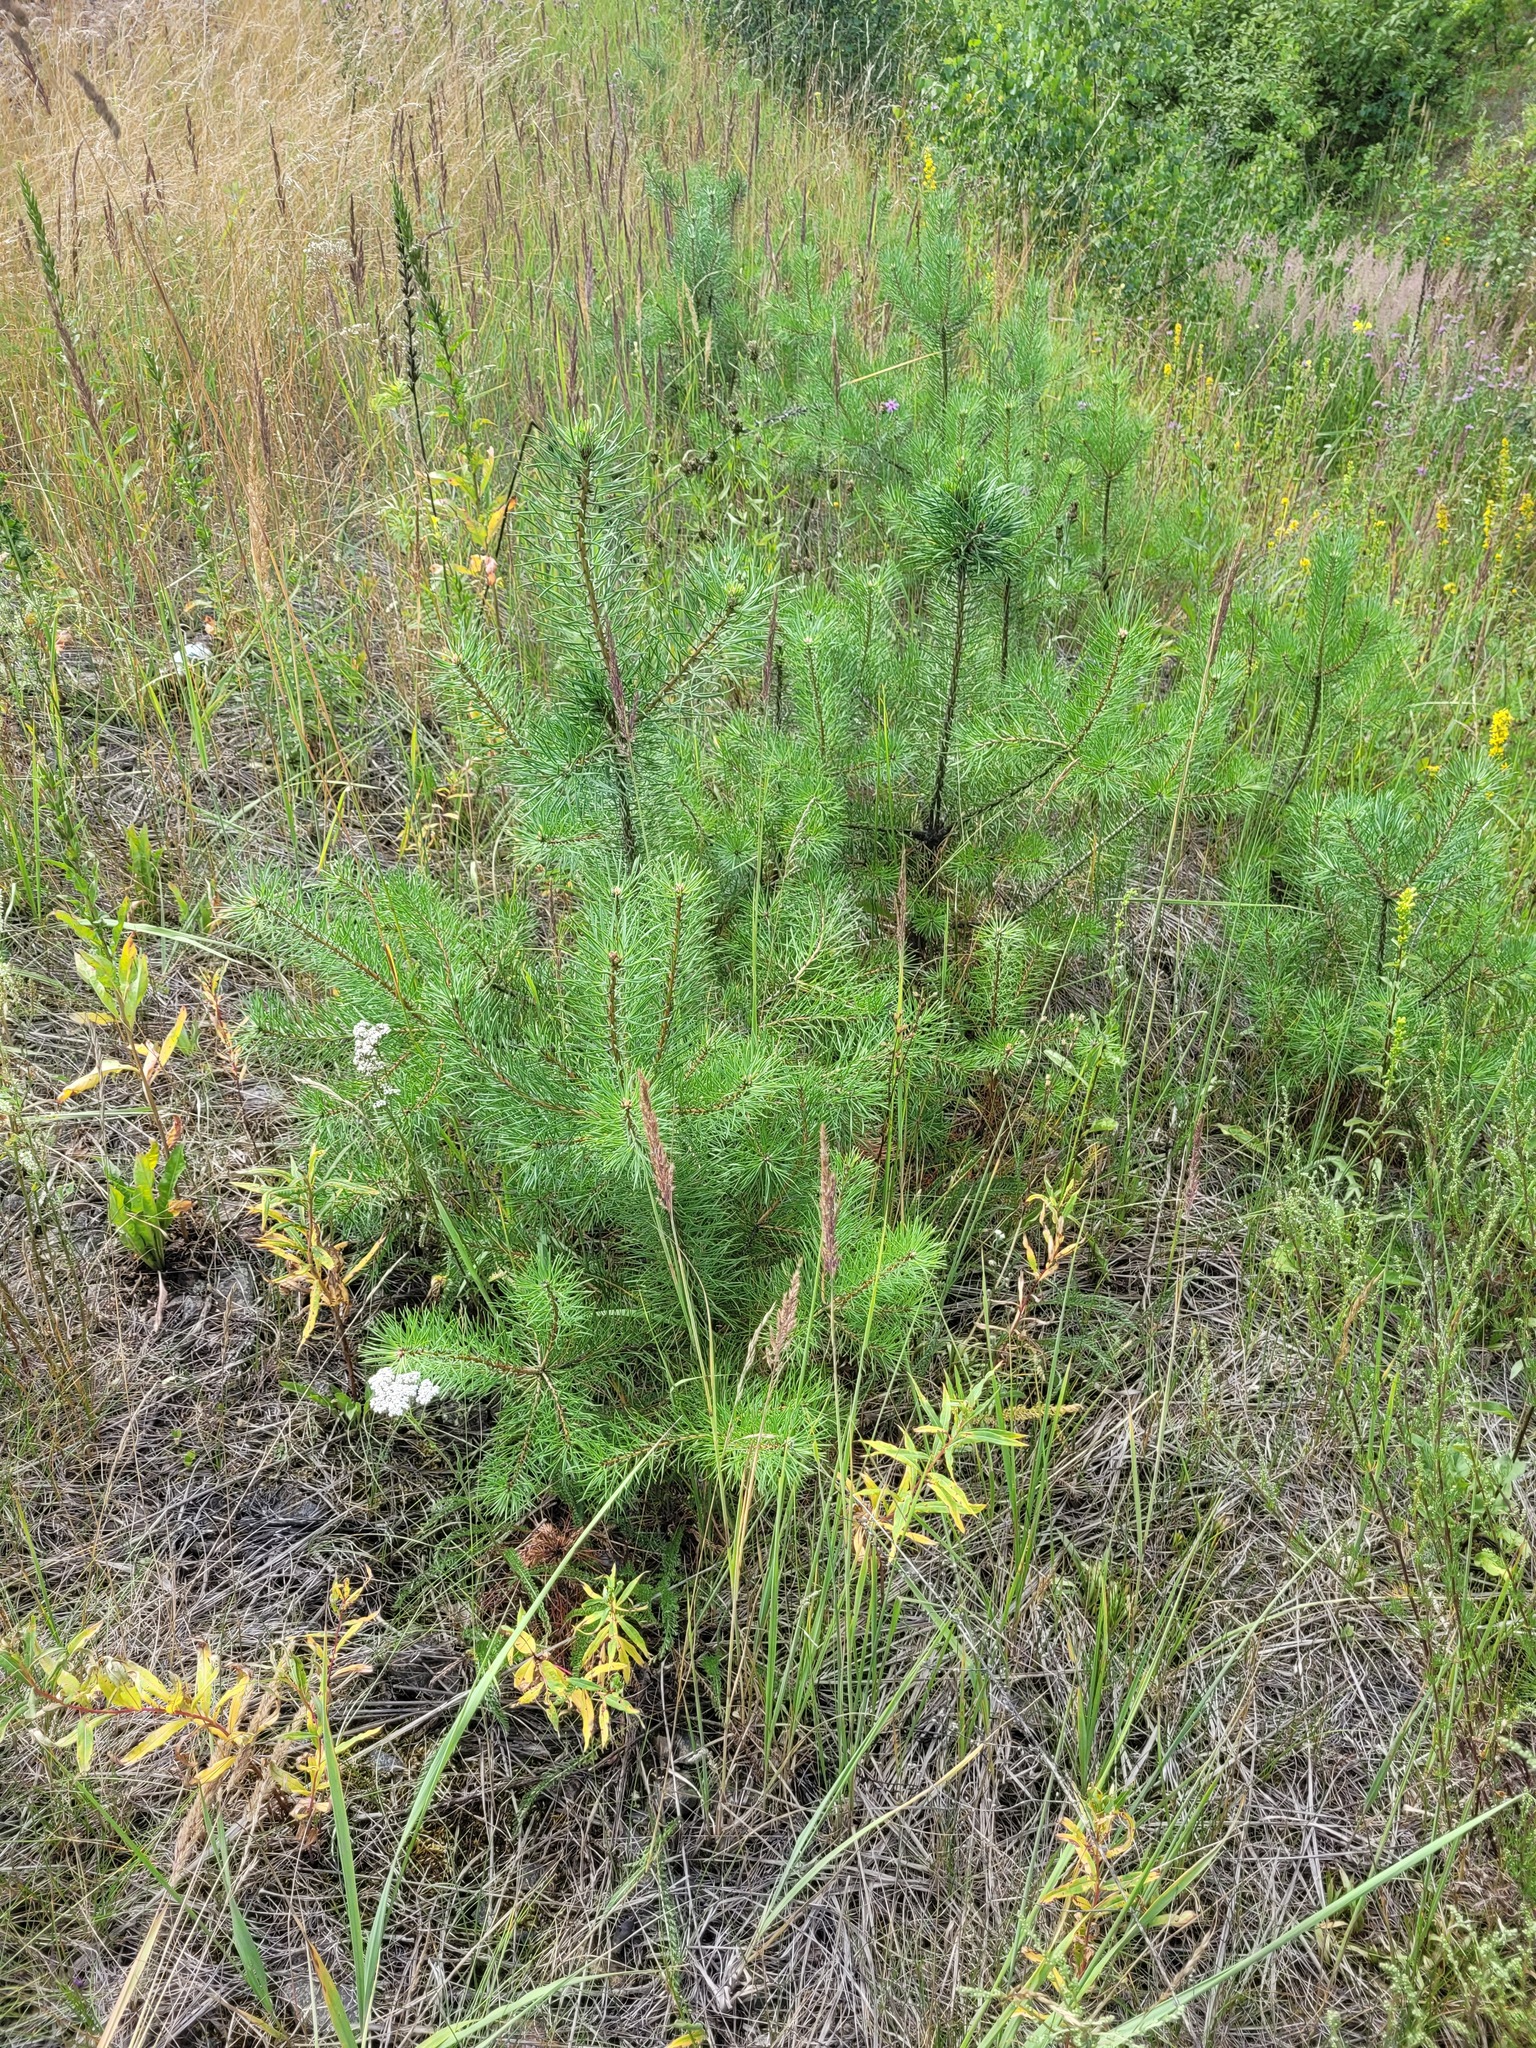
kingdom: Plantae
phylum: Tracheophyta
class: Pinopsida
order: Pinales
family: Pinaceae
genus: Pinus
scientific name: Pinus sylvestris
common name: Scots pine
